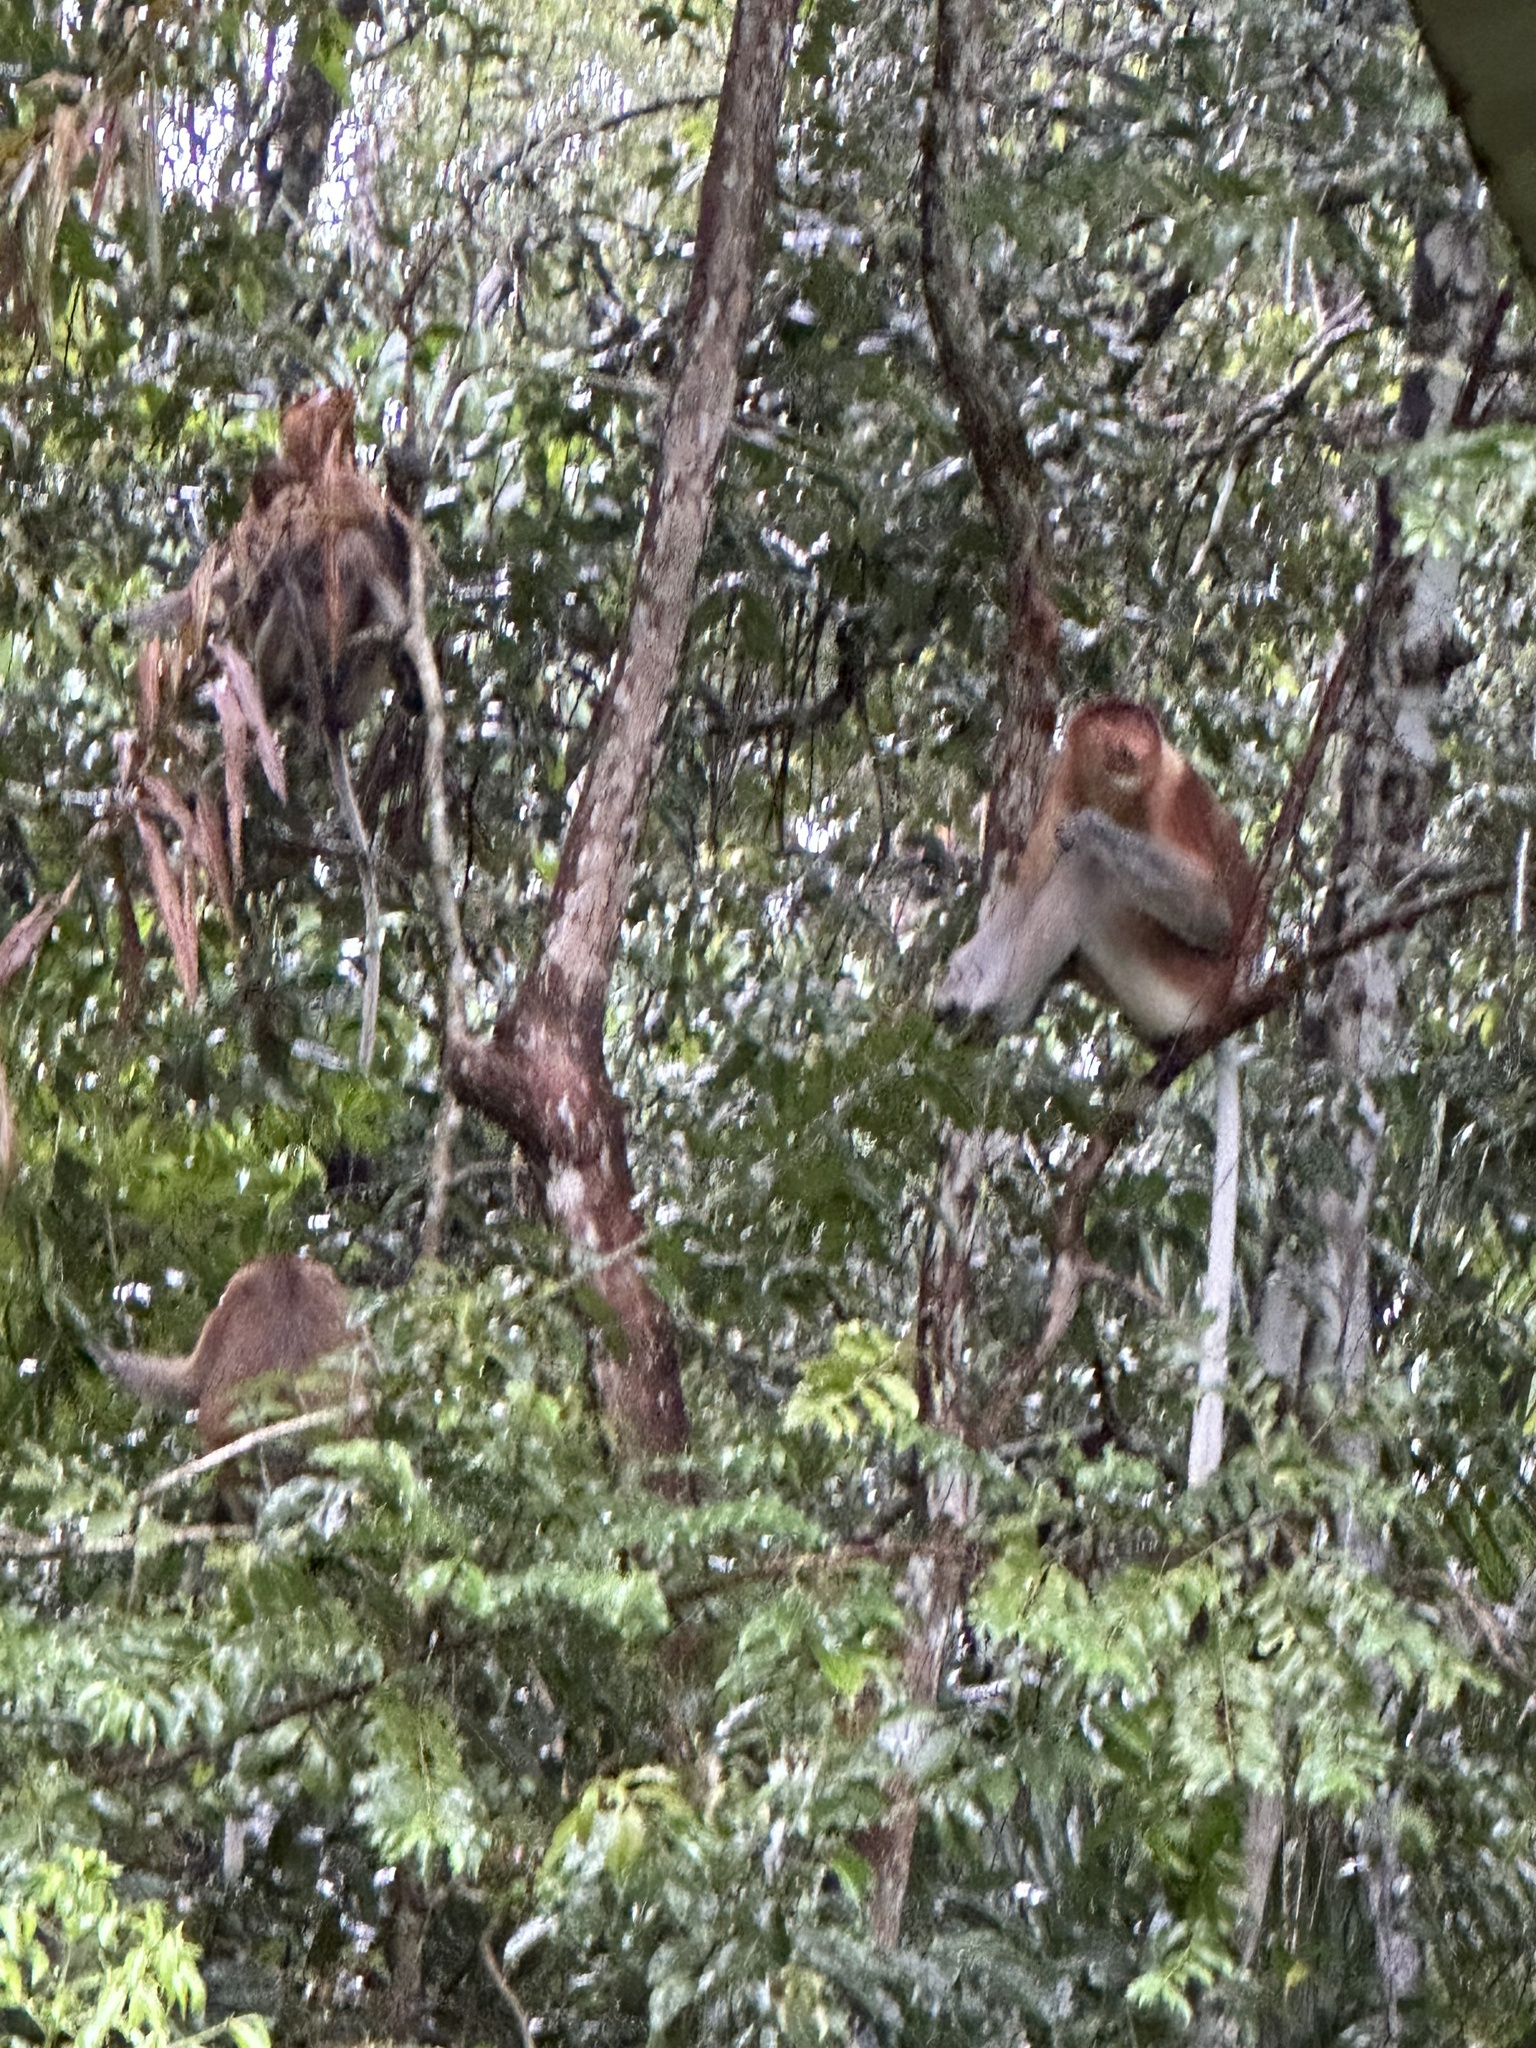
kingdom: Animalia
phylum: Chordata
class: Mammalia
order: Primates
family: Cercopithecidae
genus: Nasalis
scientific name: Nasalis larvatus
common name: Proboscis monkey
